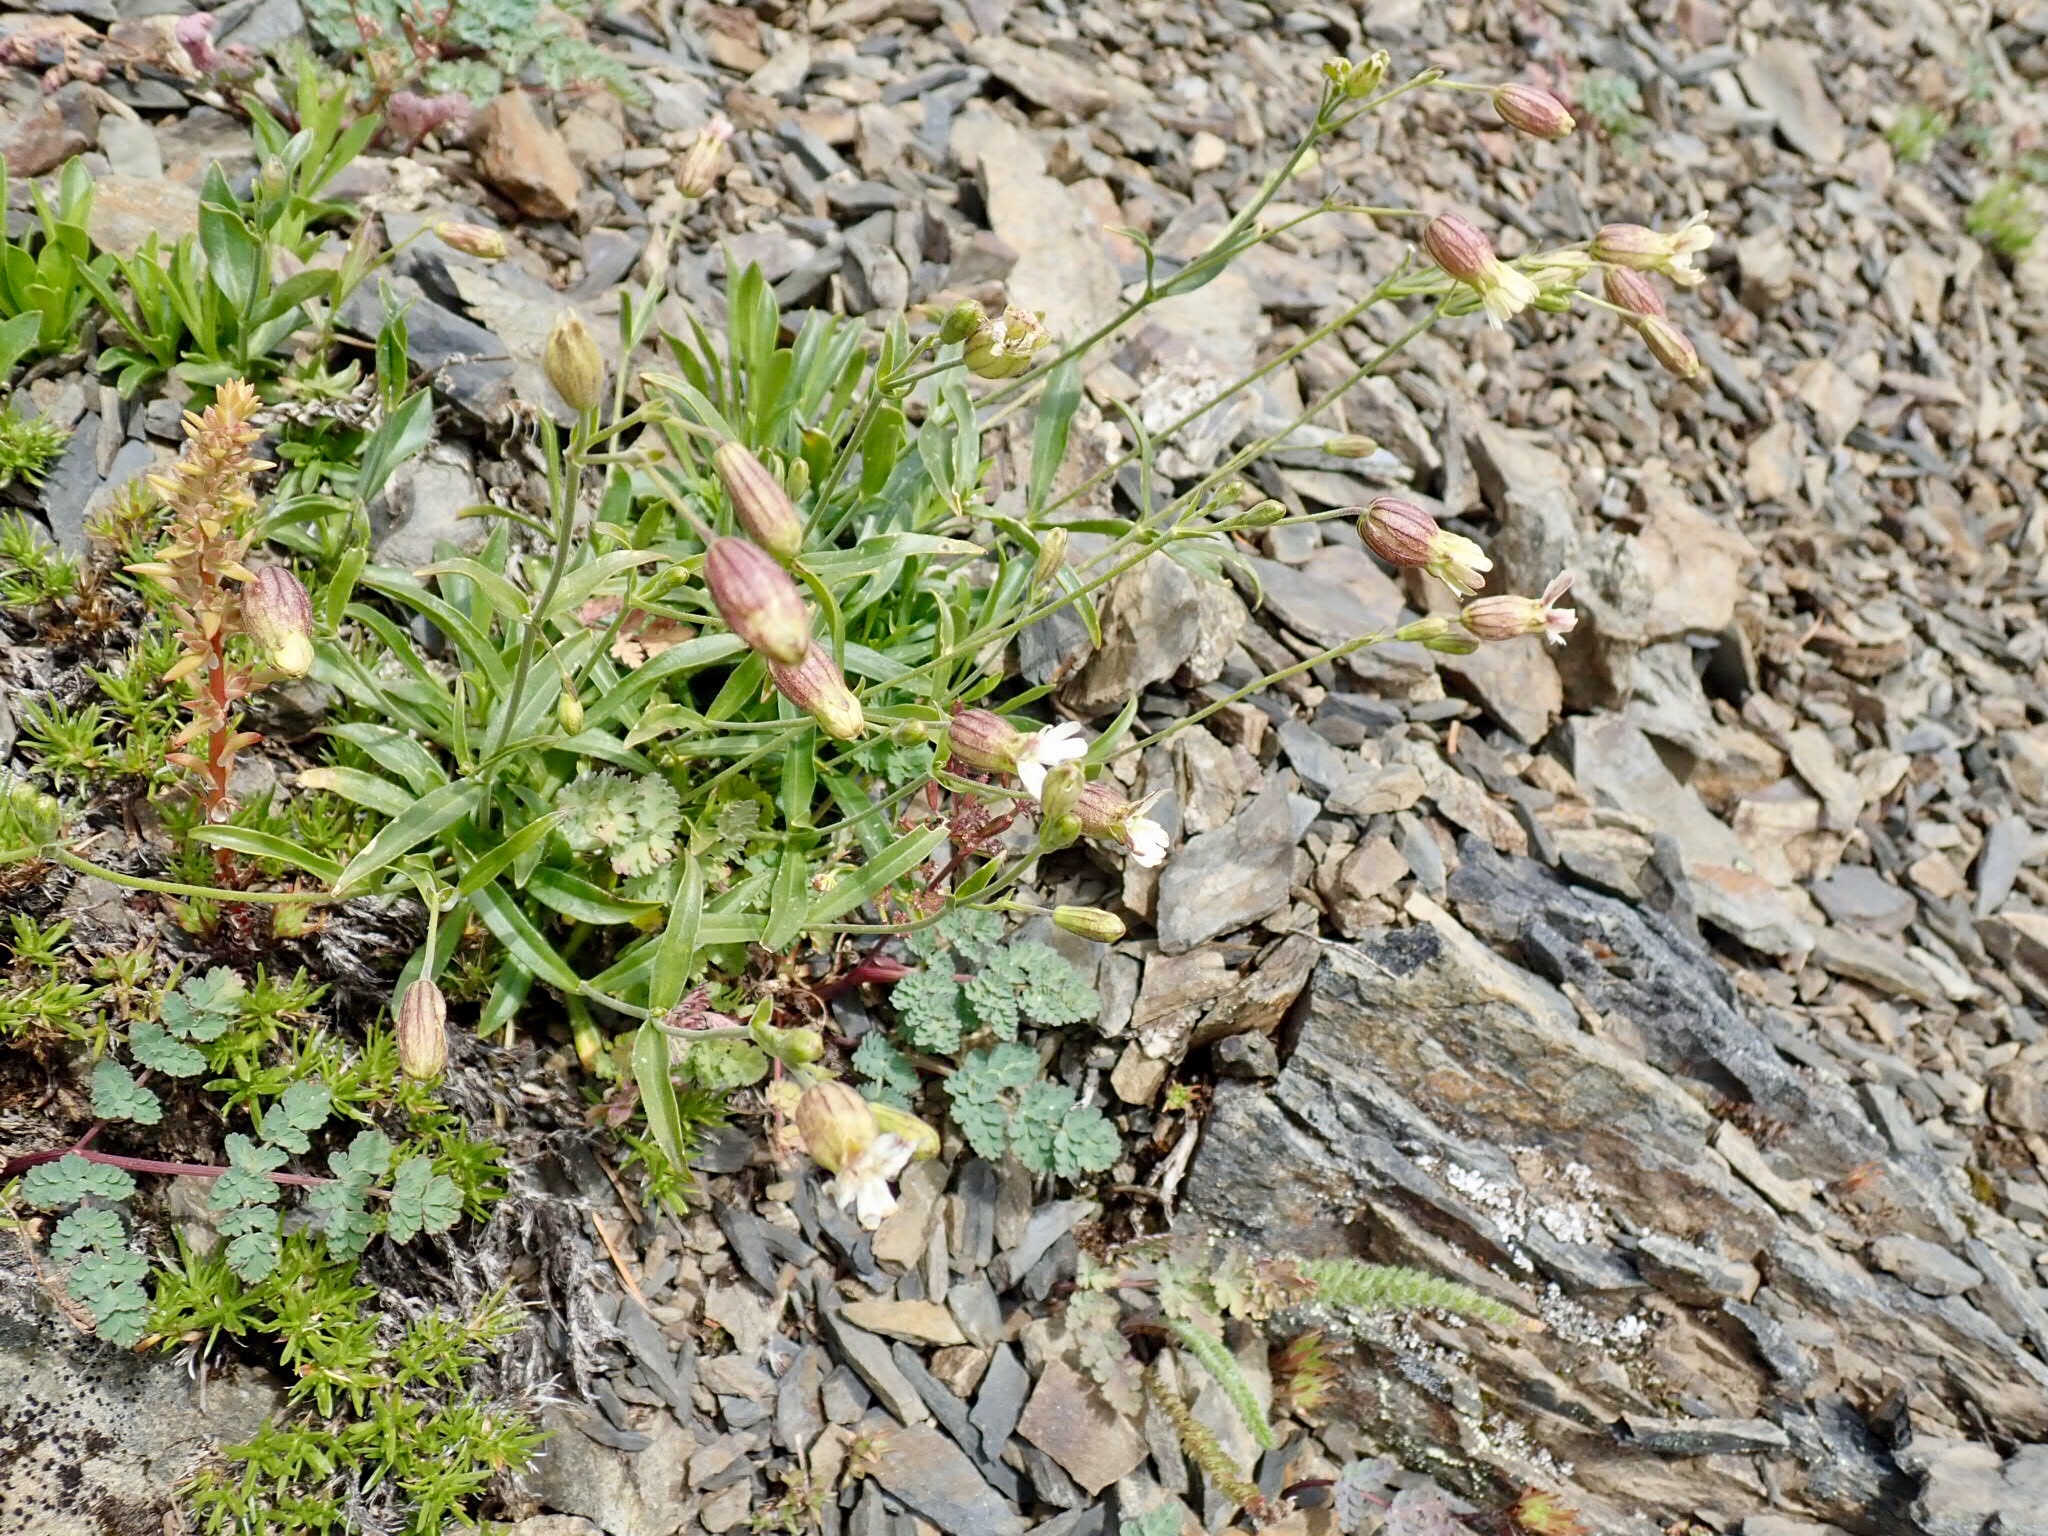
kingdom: Plantae
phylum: Tracheophyta
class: Magnoliopsida
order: Caryophyllales
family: Caryophyllaceae
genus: Silene
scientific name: Silene parryi
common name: Parry's campion
